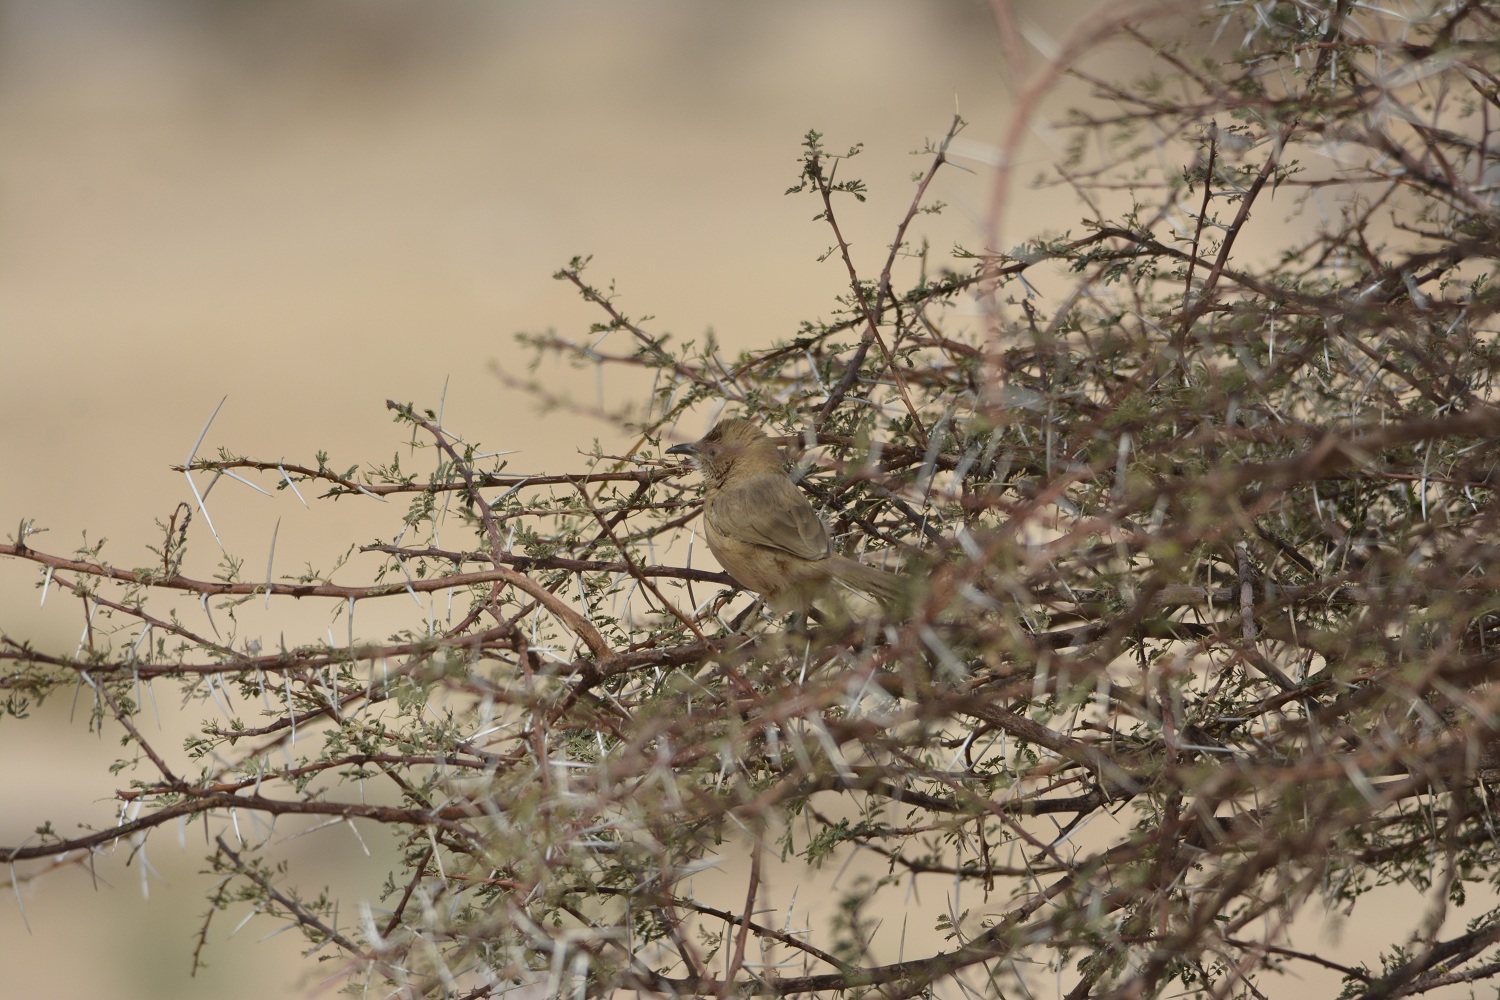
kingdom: Animalia
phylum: Chordata
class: Aves
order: Passeriformes
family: Leiothrichidae
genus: Turdoides
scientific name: Turdoides fulva
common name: Fulvous babbler
